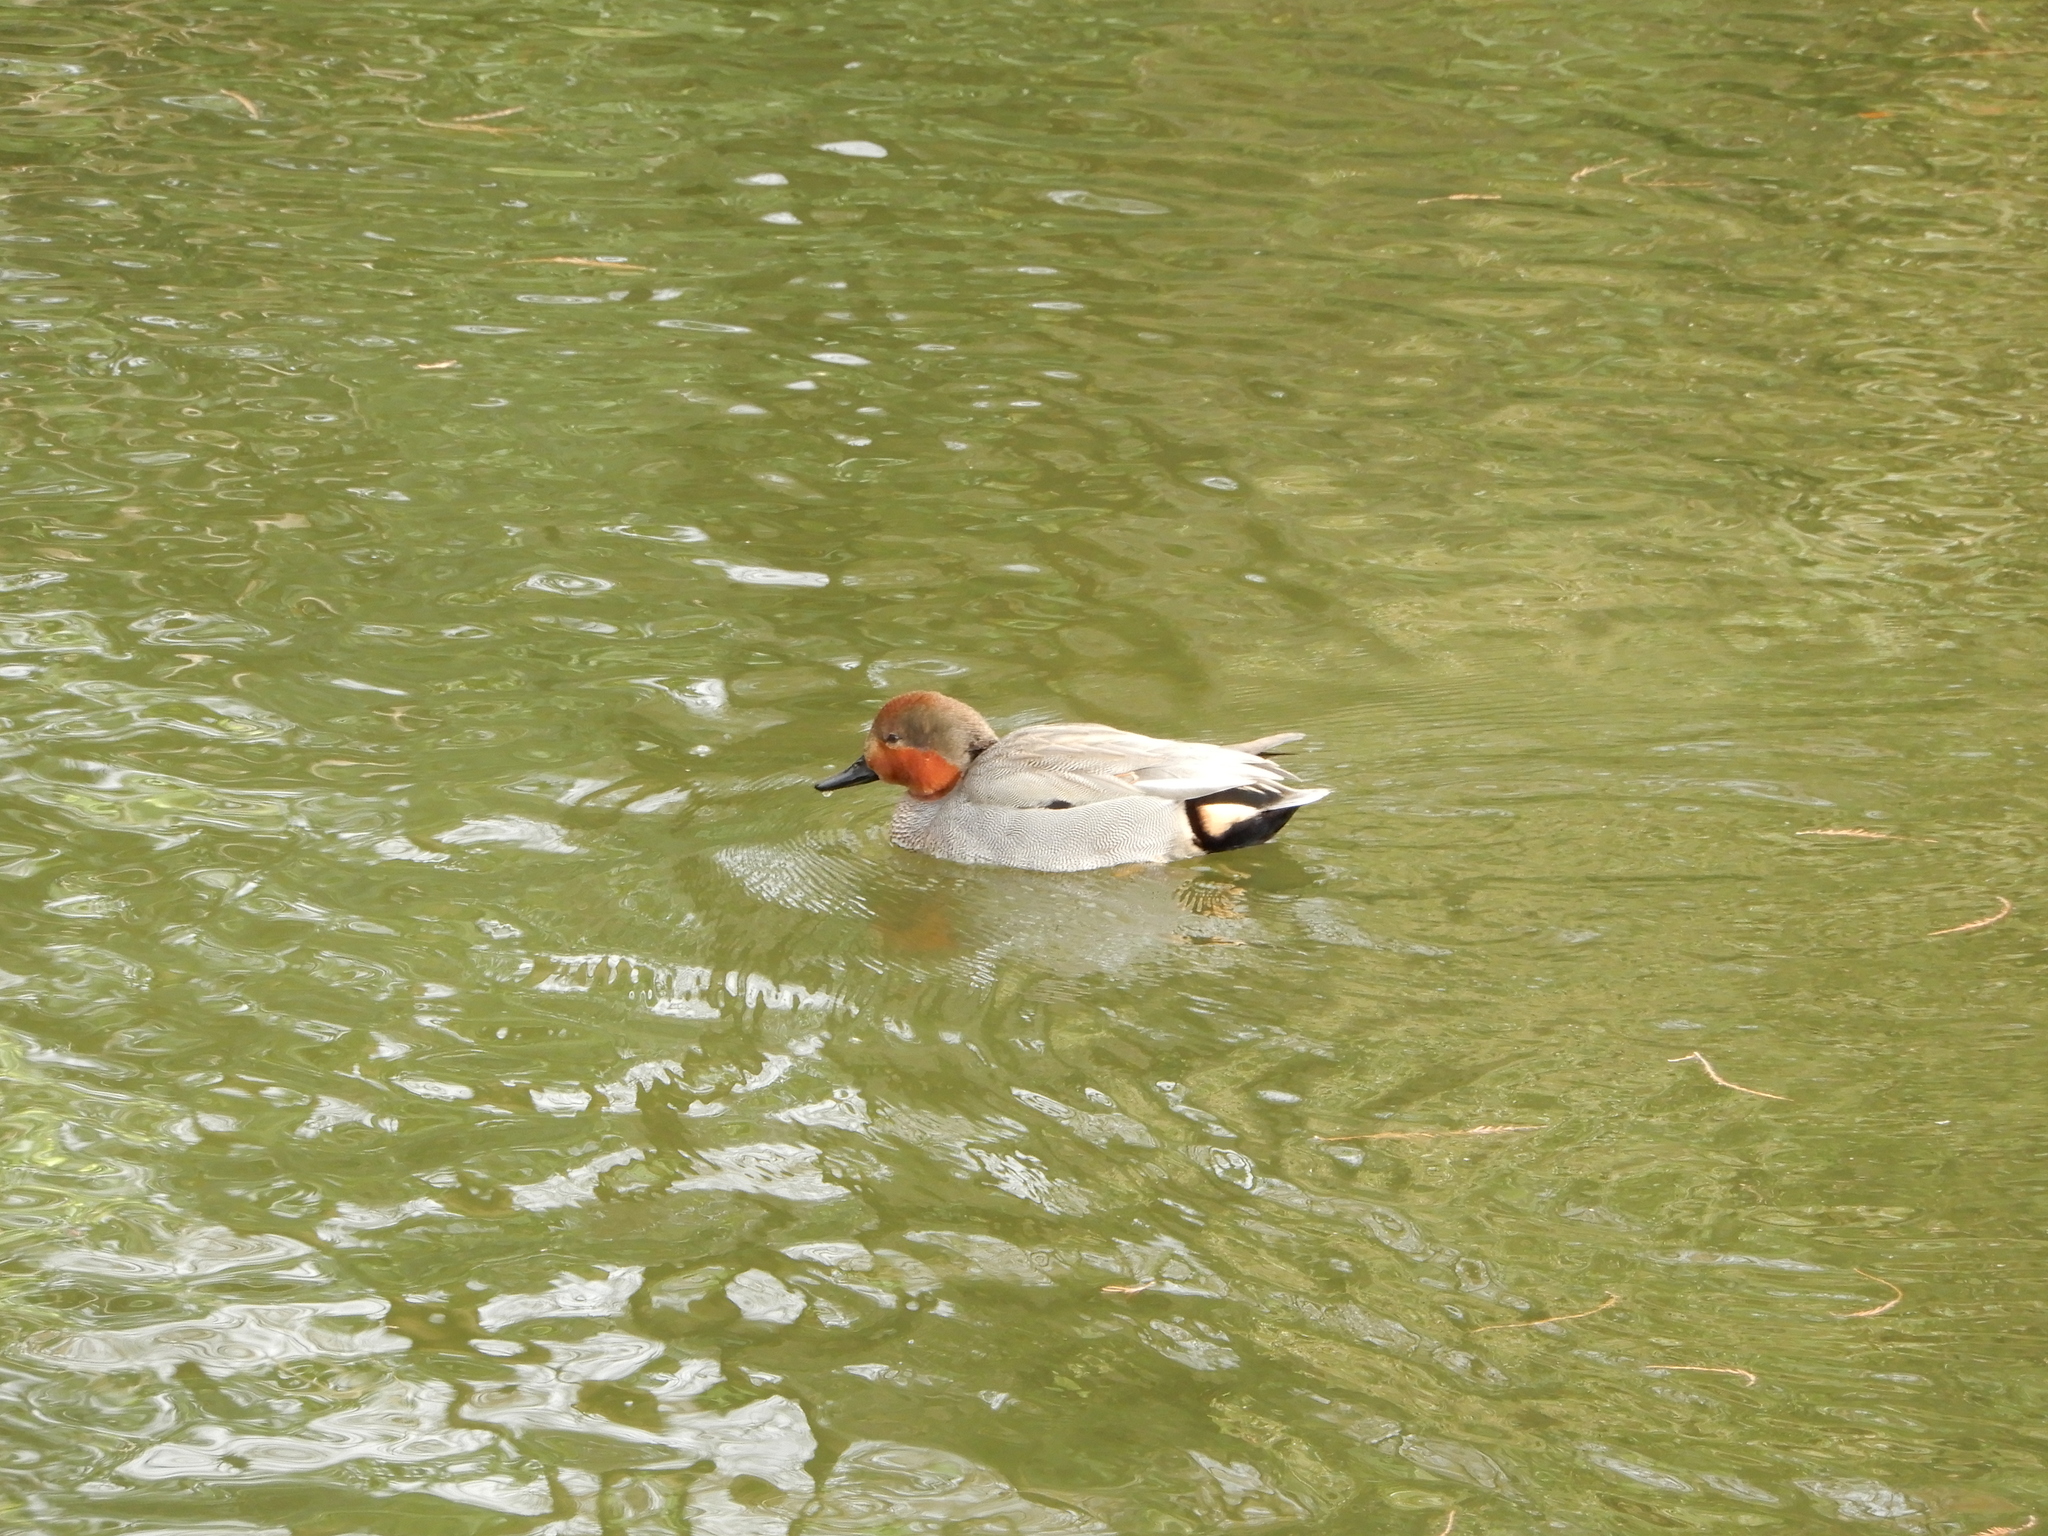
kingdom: Animalia
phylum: Chordata
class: Aves
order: Anseriformes
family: Anatidae
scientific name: Anatidae
